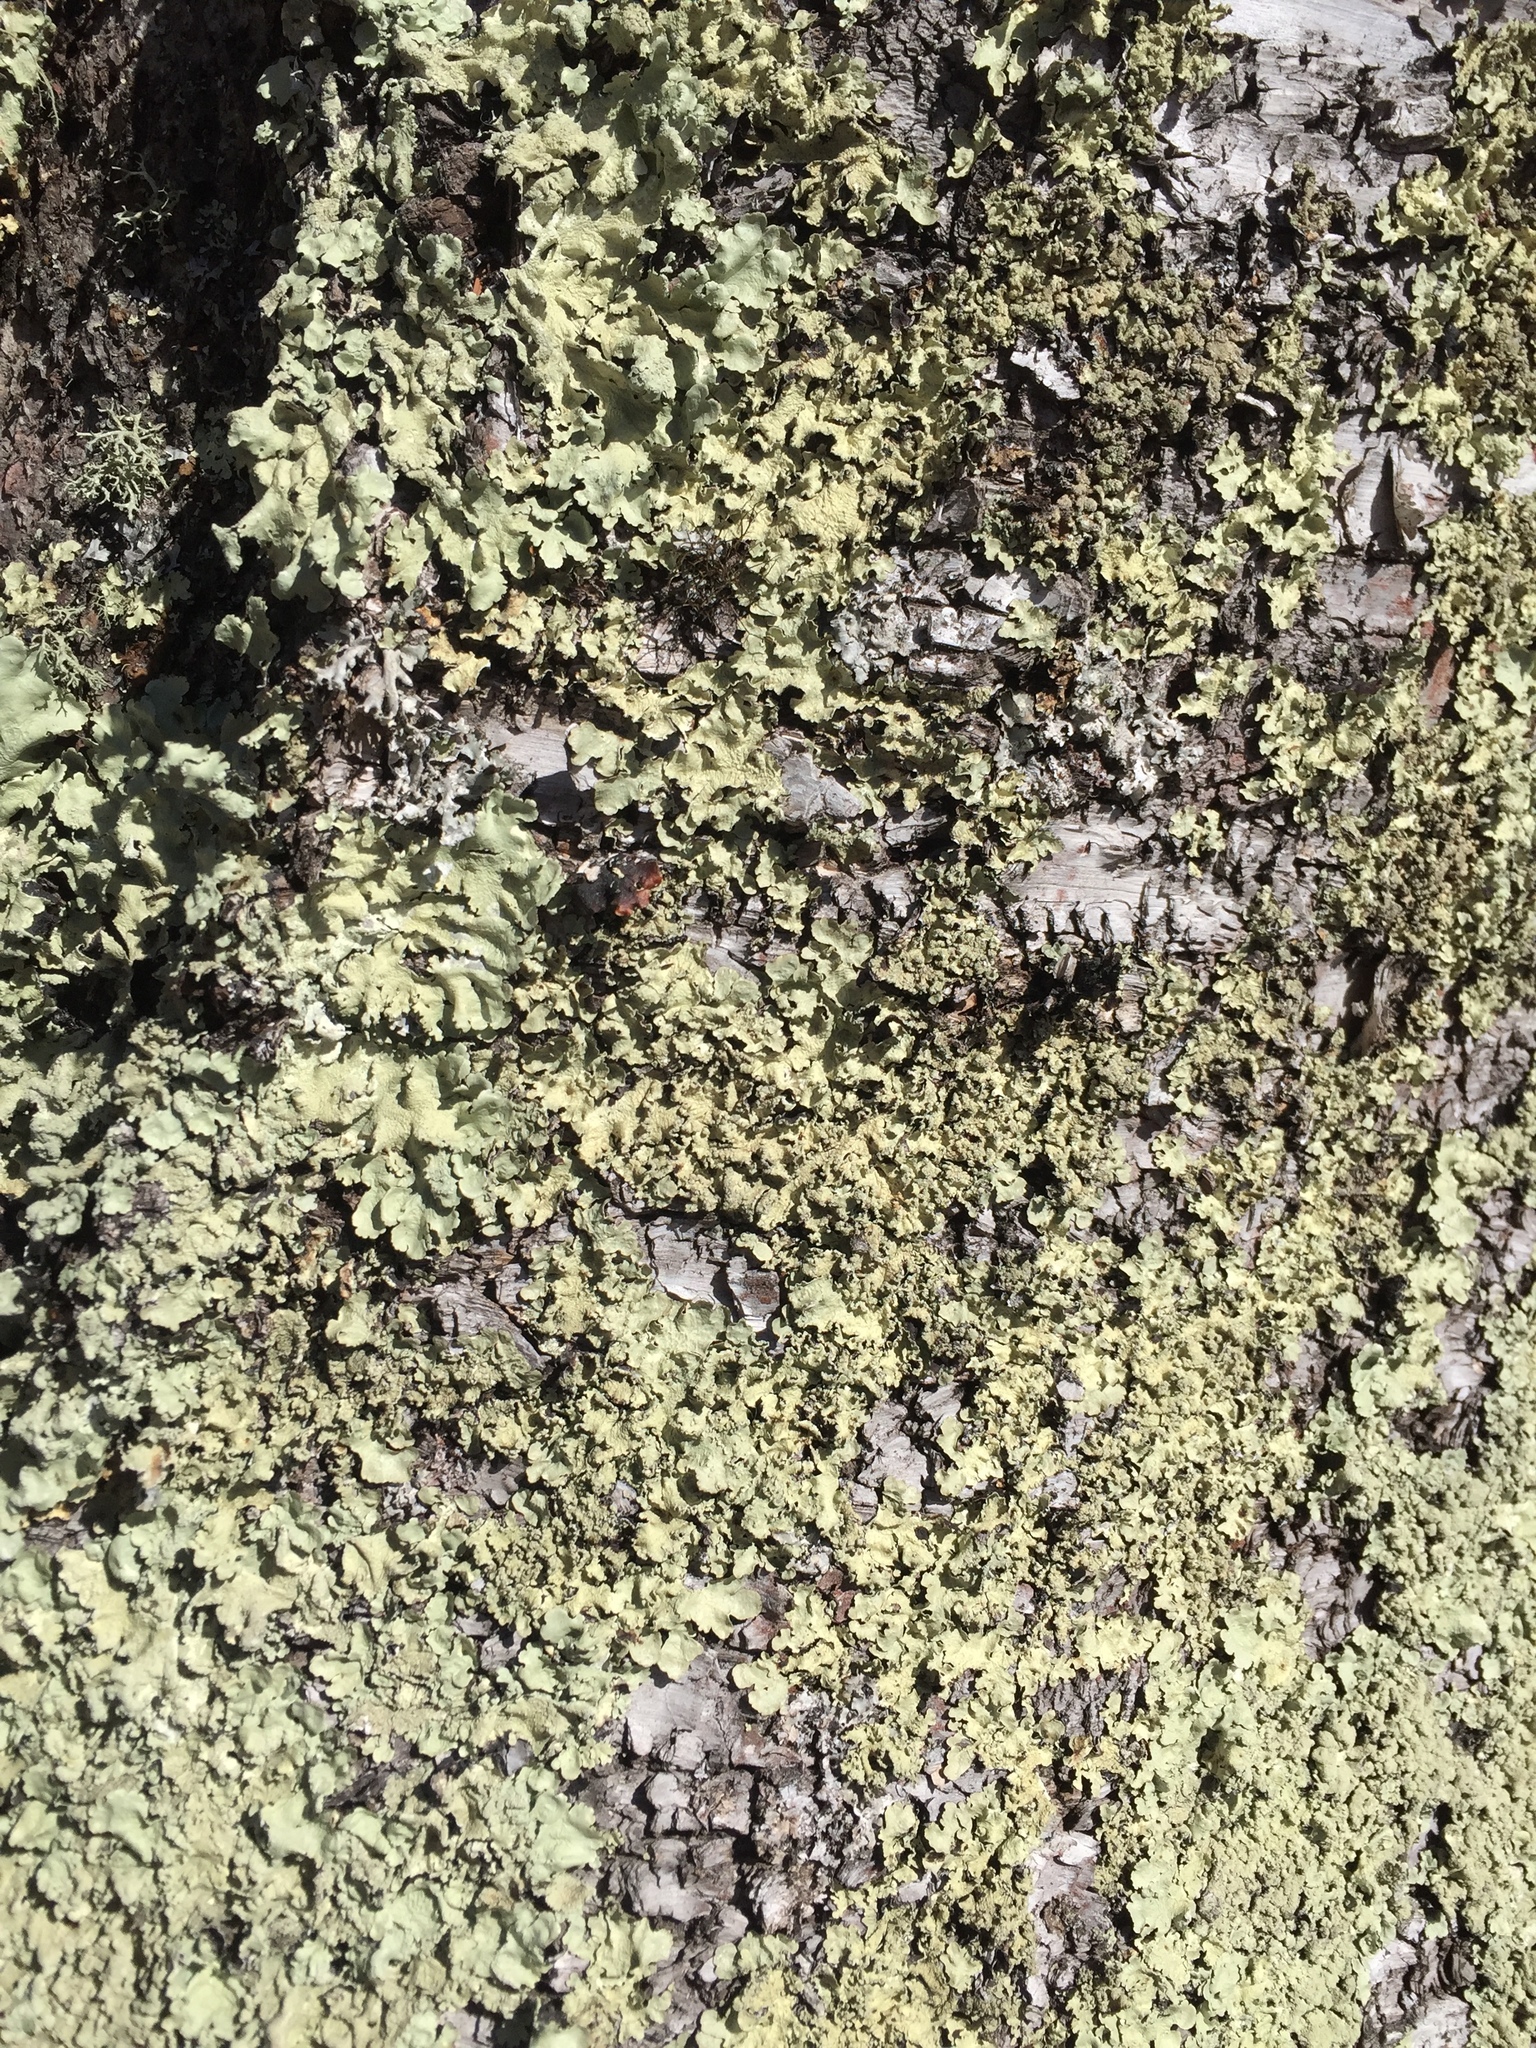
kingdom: Fungi
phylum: Ascomycota
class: Lecanoromycetes
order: Lecanorales
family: Parmeliaceae
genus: Flavoparmelia
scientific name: Flavoparmelia caperata
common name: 40-mile per hour lichen
